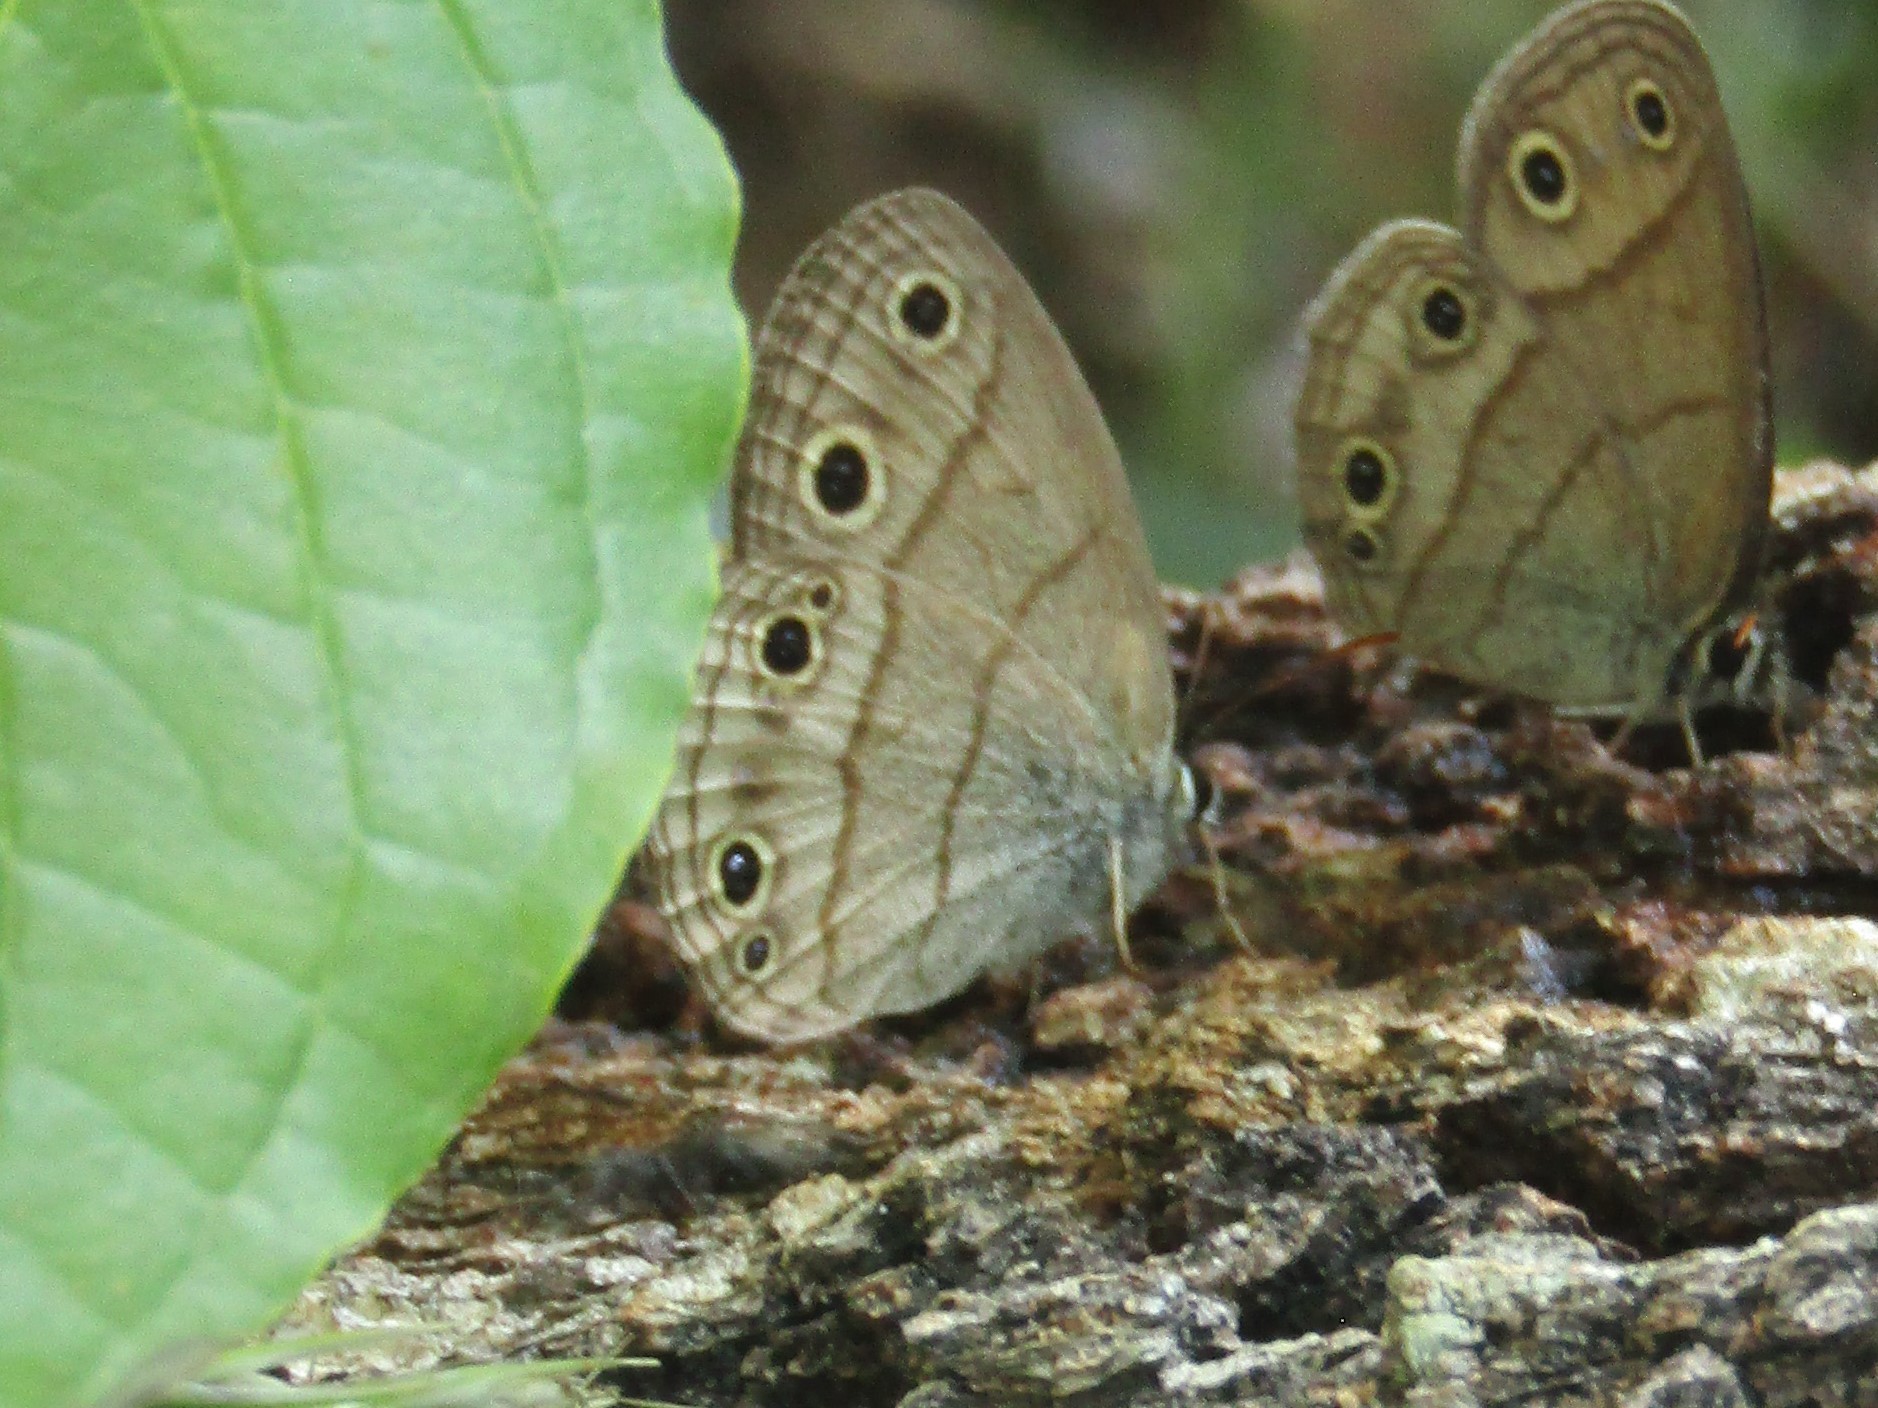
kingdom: Animalia
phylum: Arthropoda
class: Insecta
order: Lepidoptera
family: Nymphalidae
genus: Euptychia
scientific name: Euptychia cymela
